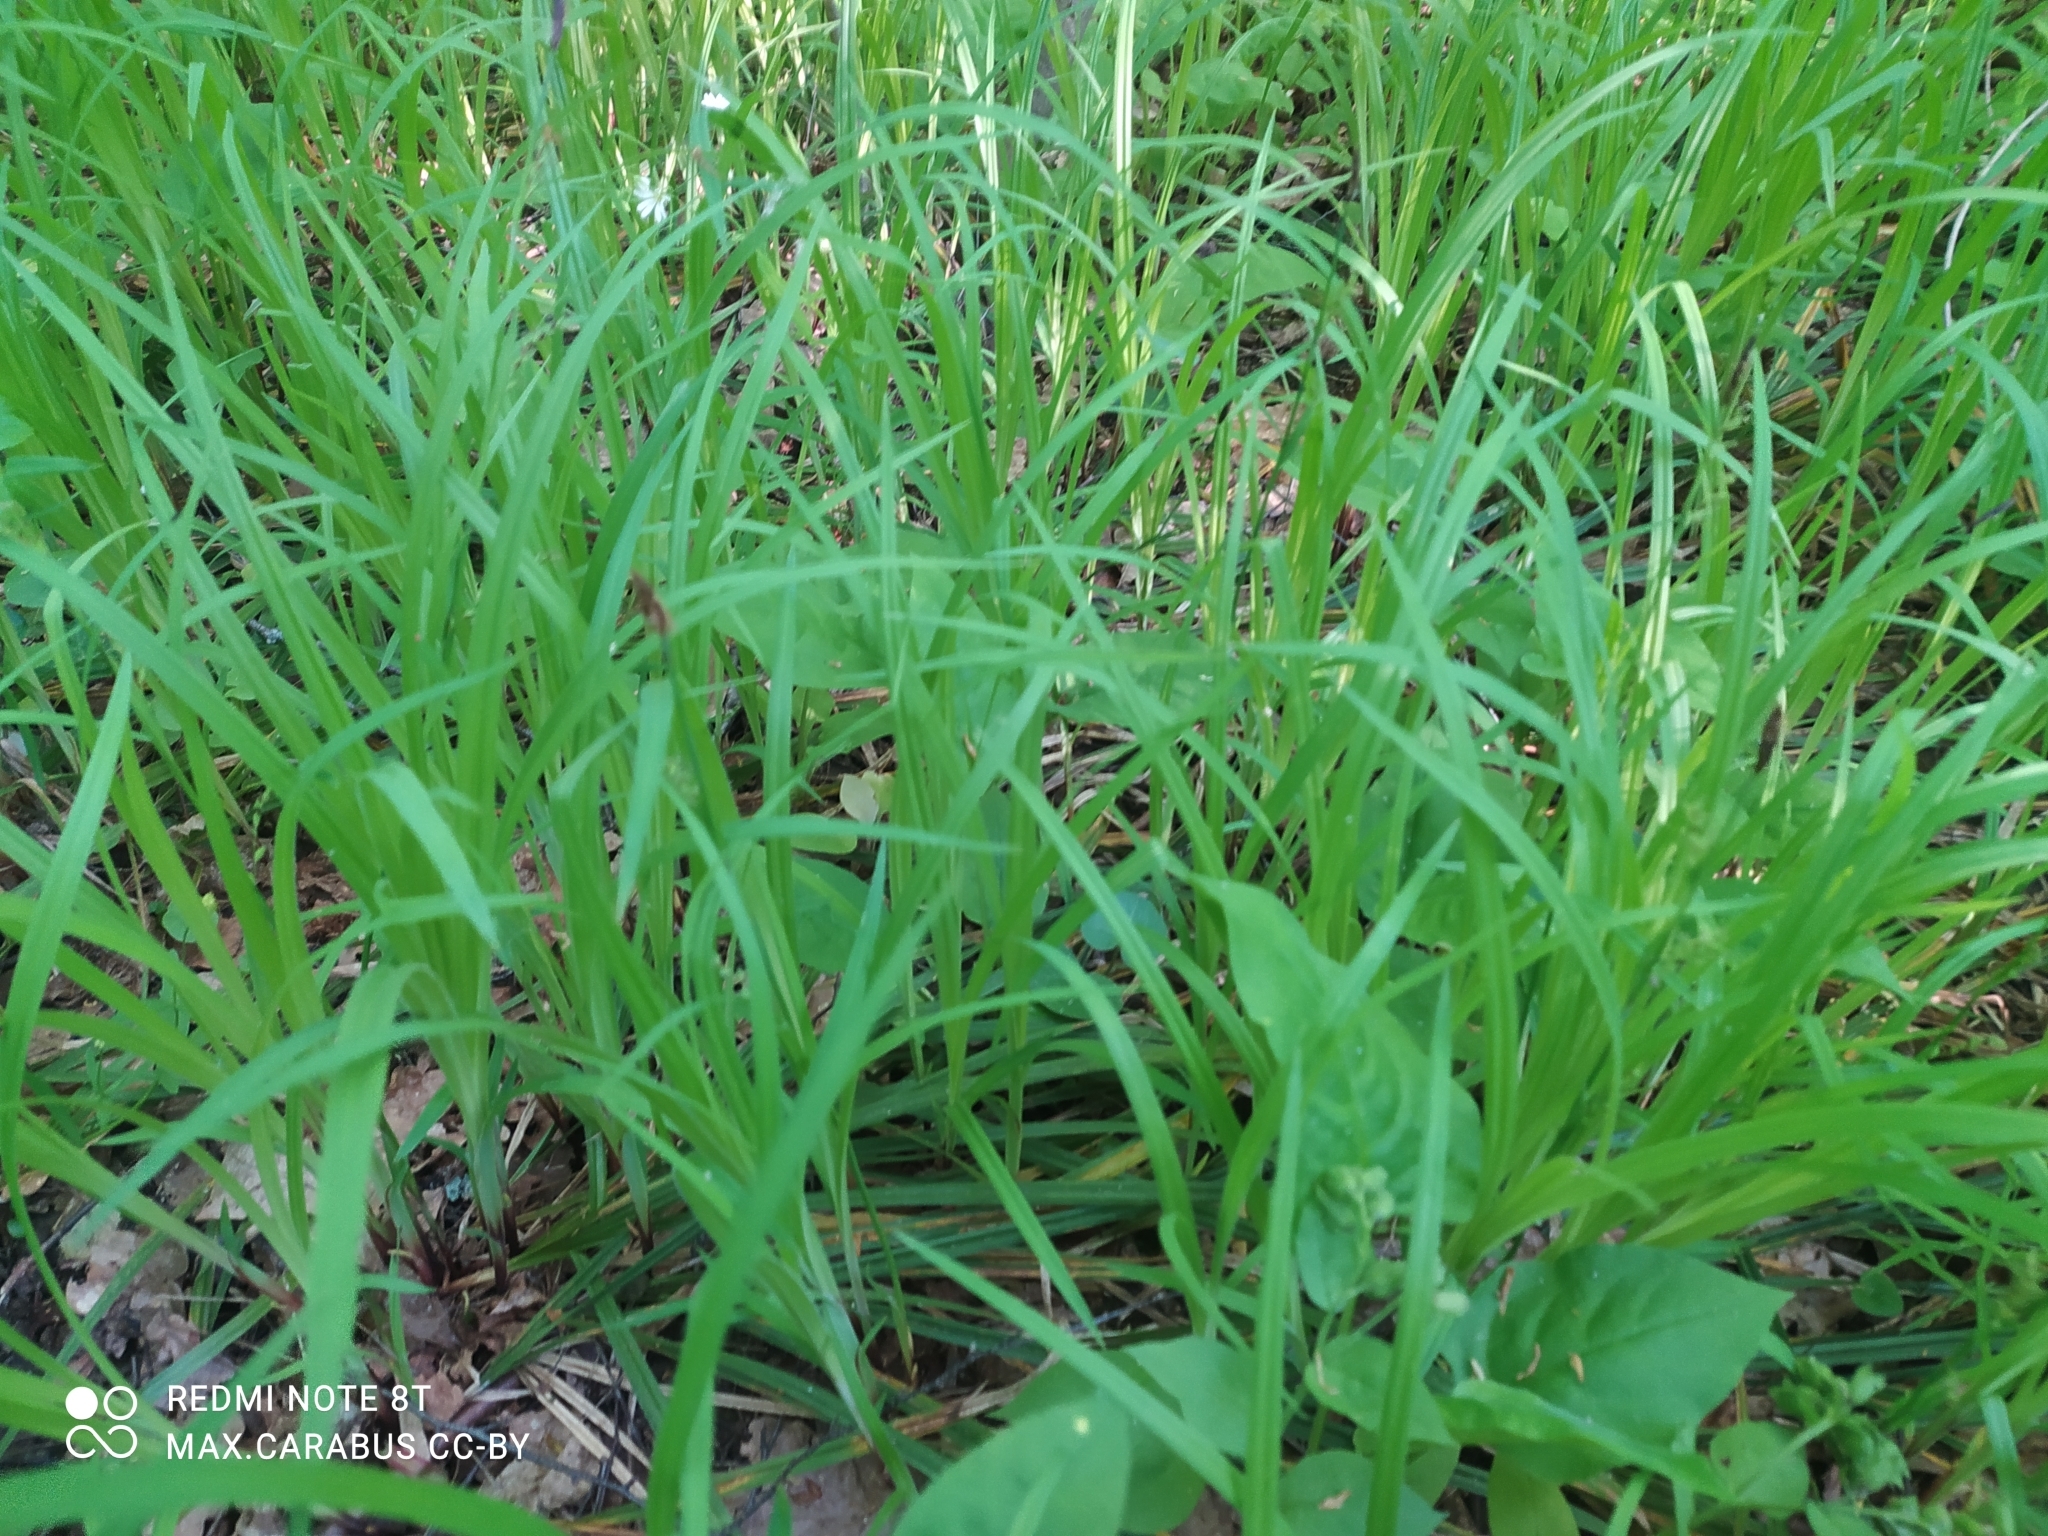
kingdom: Plantae
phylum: Tracheophyta
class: Liliopsida
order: Poales
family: Cyperaceae
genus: Carex
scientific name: Carex pilosa
